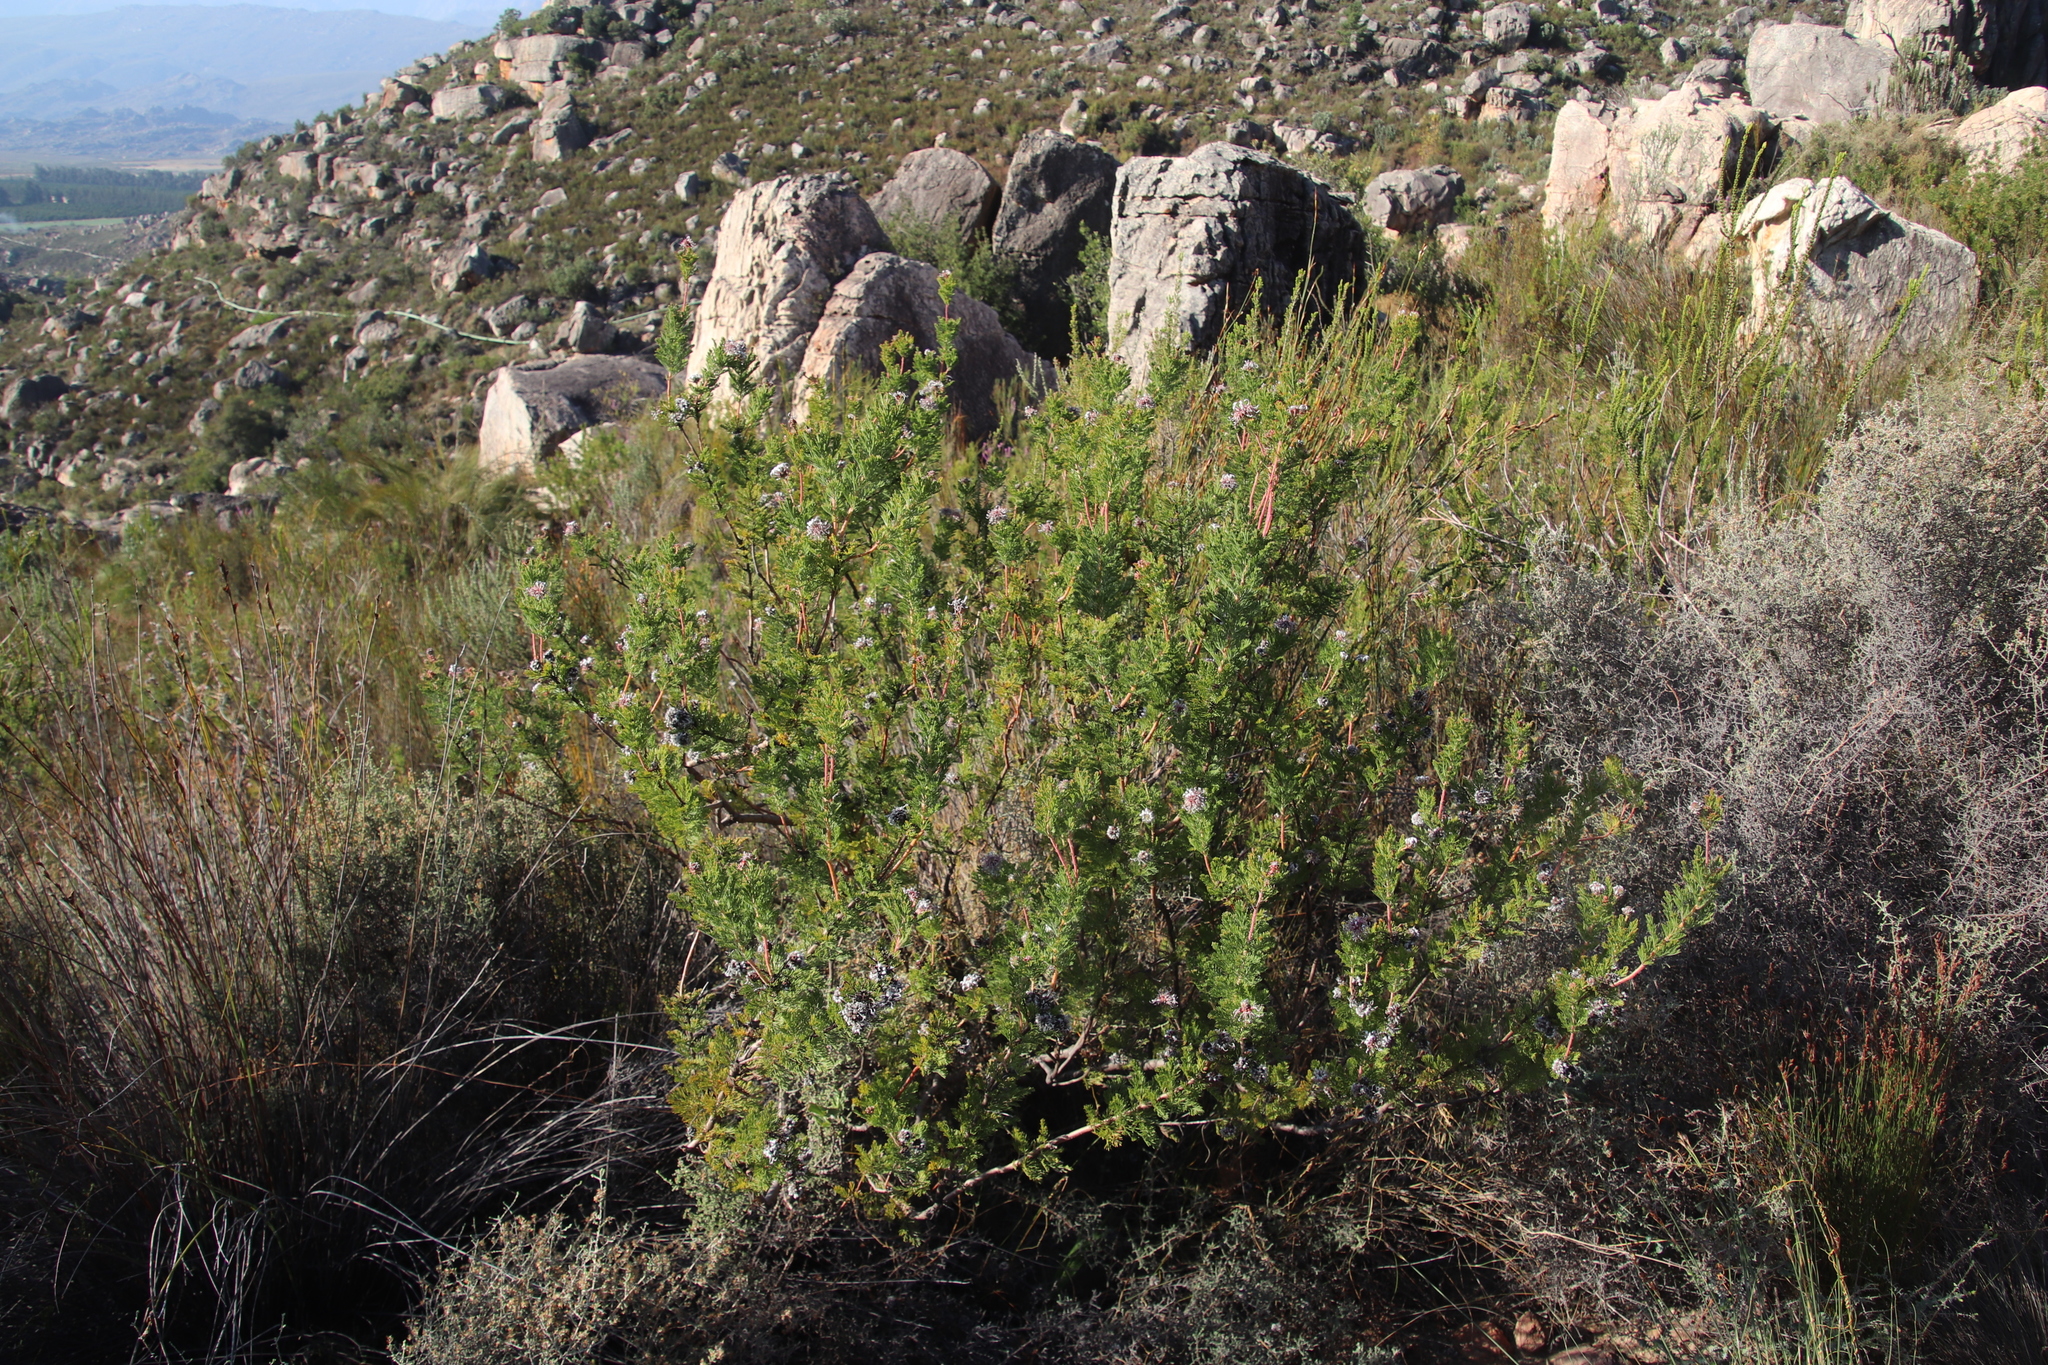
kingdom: Plantae
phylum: Tracheophyta
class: Magnoliopsida
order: Proteales
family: Proteaceae
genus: Serruria
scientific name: Serruria pedunculata
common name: Fan-leaf spiderhead
